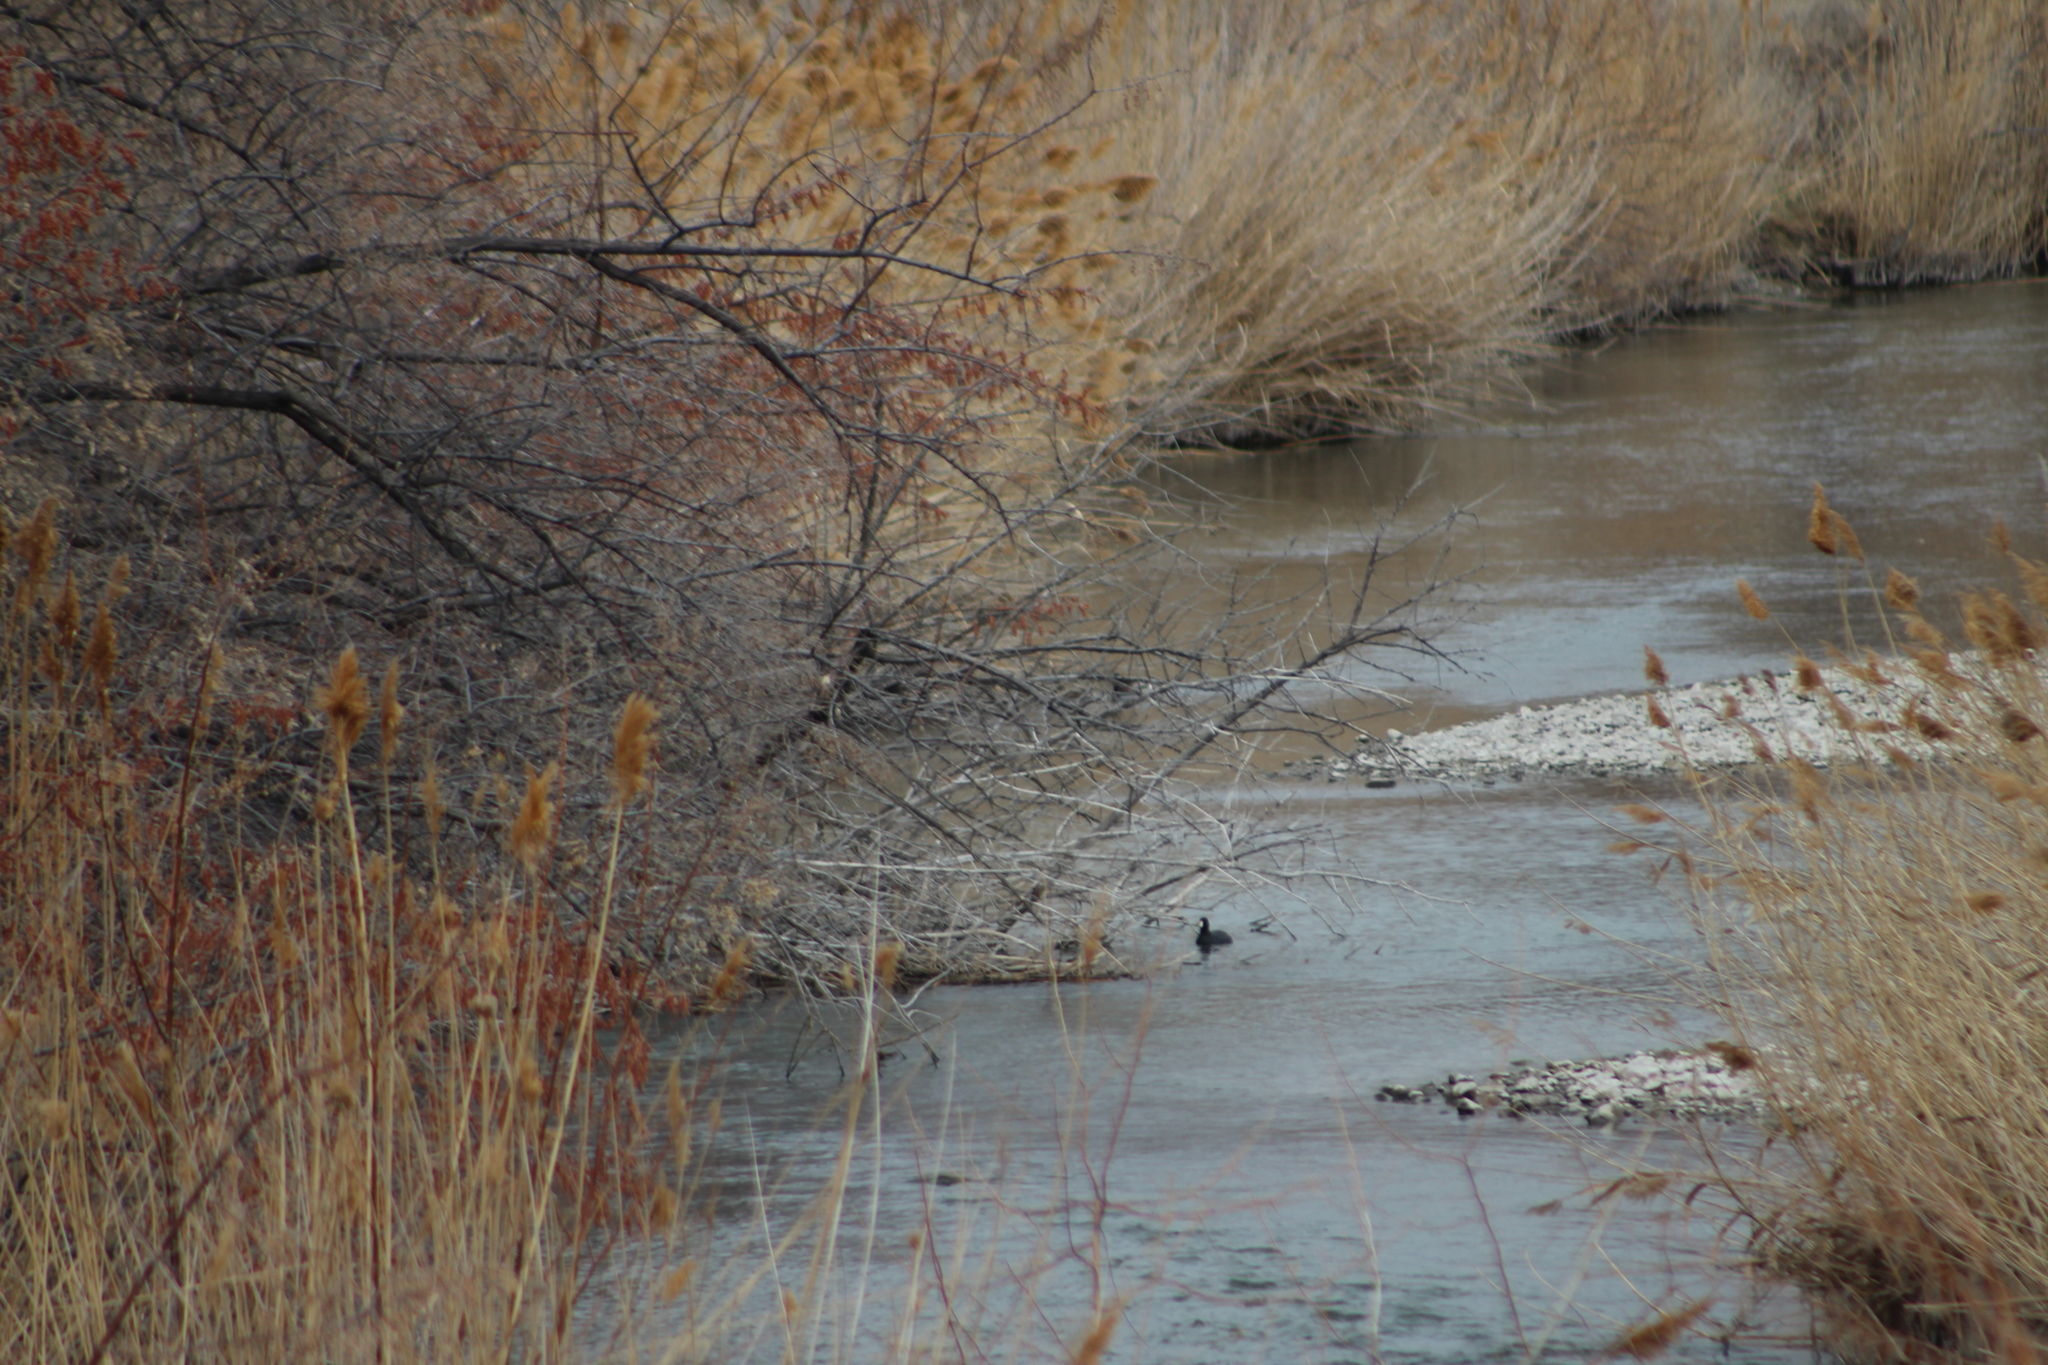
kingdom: Animalia
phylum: Chordata
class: Aves
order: Gruiformes
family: Rallidae
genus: Fulica
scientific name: Fulica americana
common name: American coot
